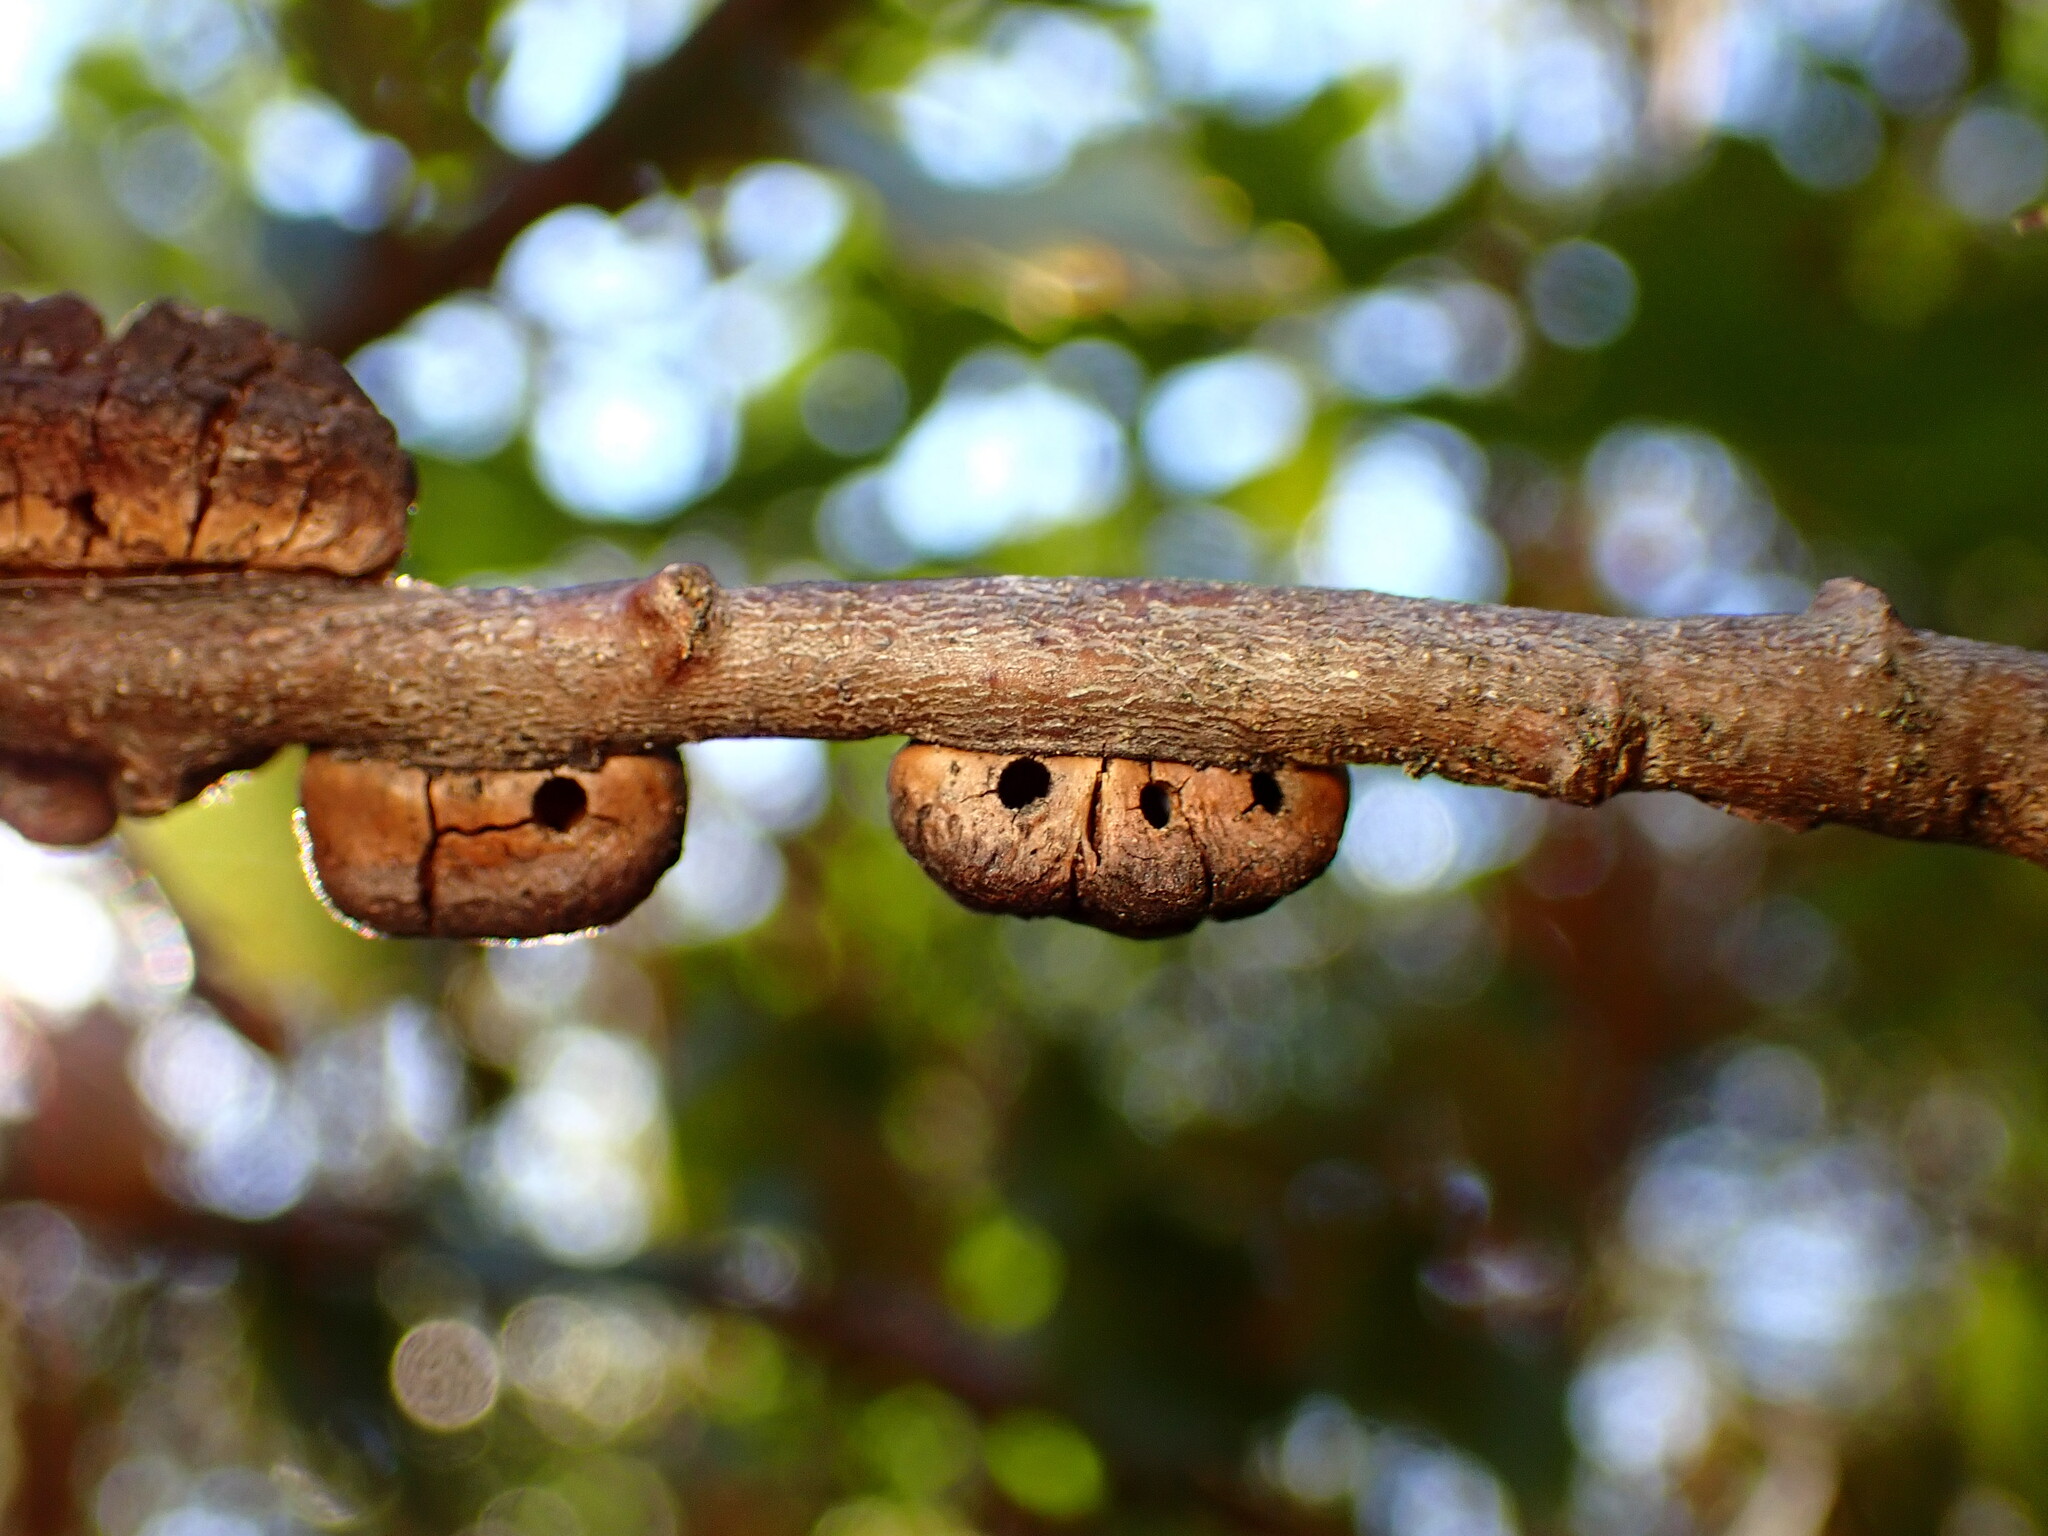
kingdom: Animalia
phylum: Arthropoda
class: Insecta
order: Hymenoptera
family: Cynipidae
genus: Disholandricus
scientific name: Disholandricus
